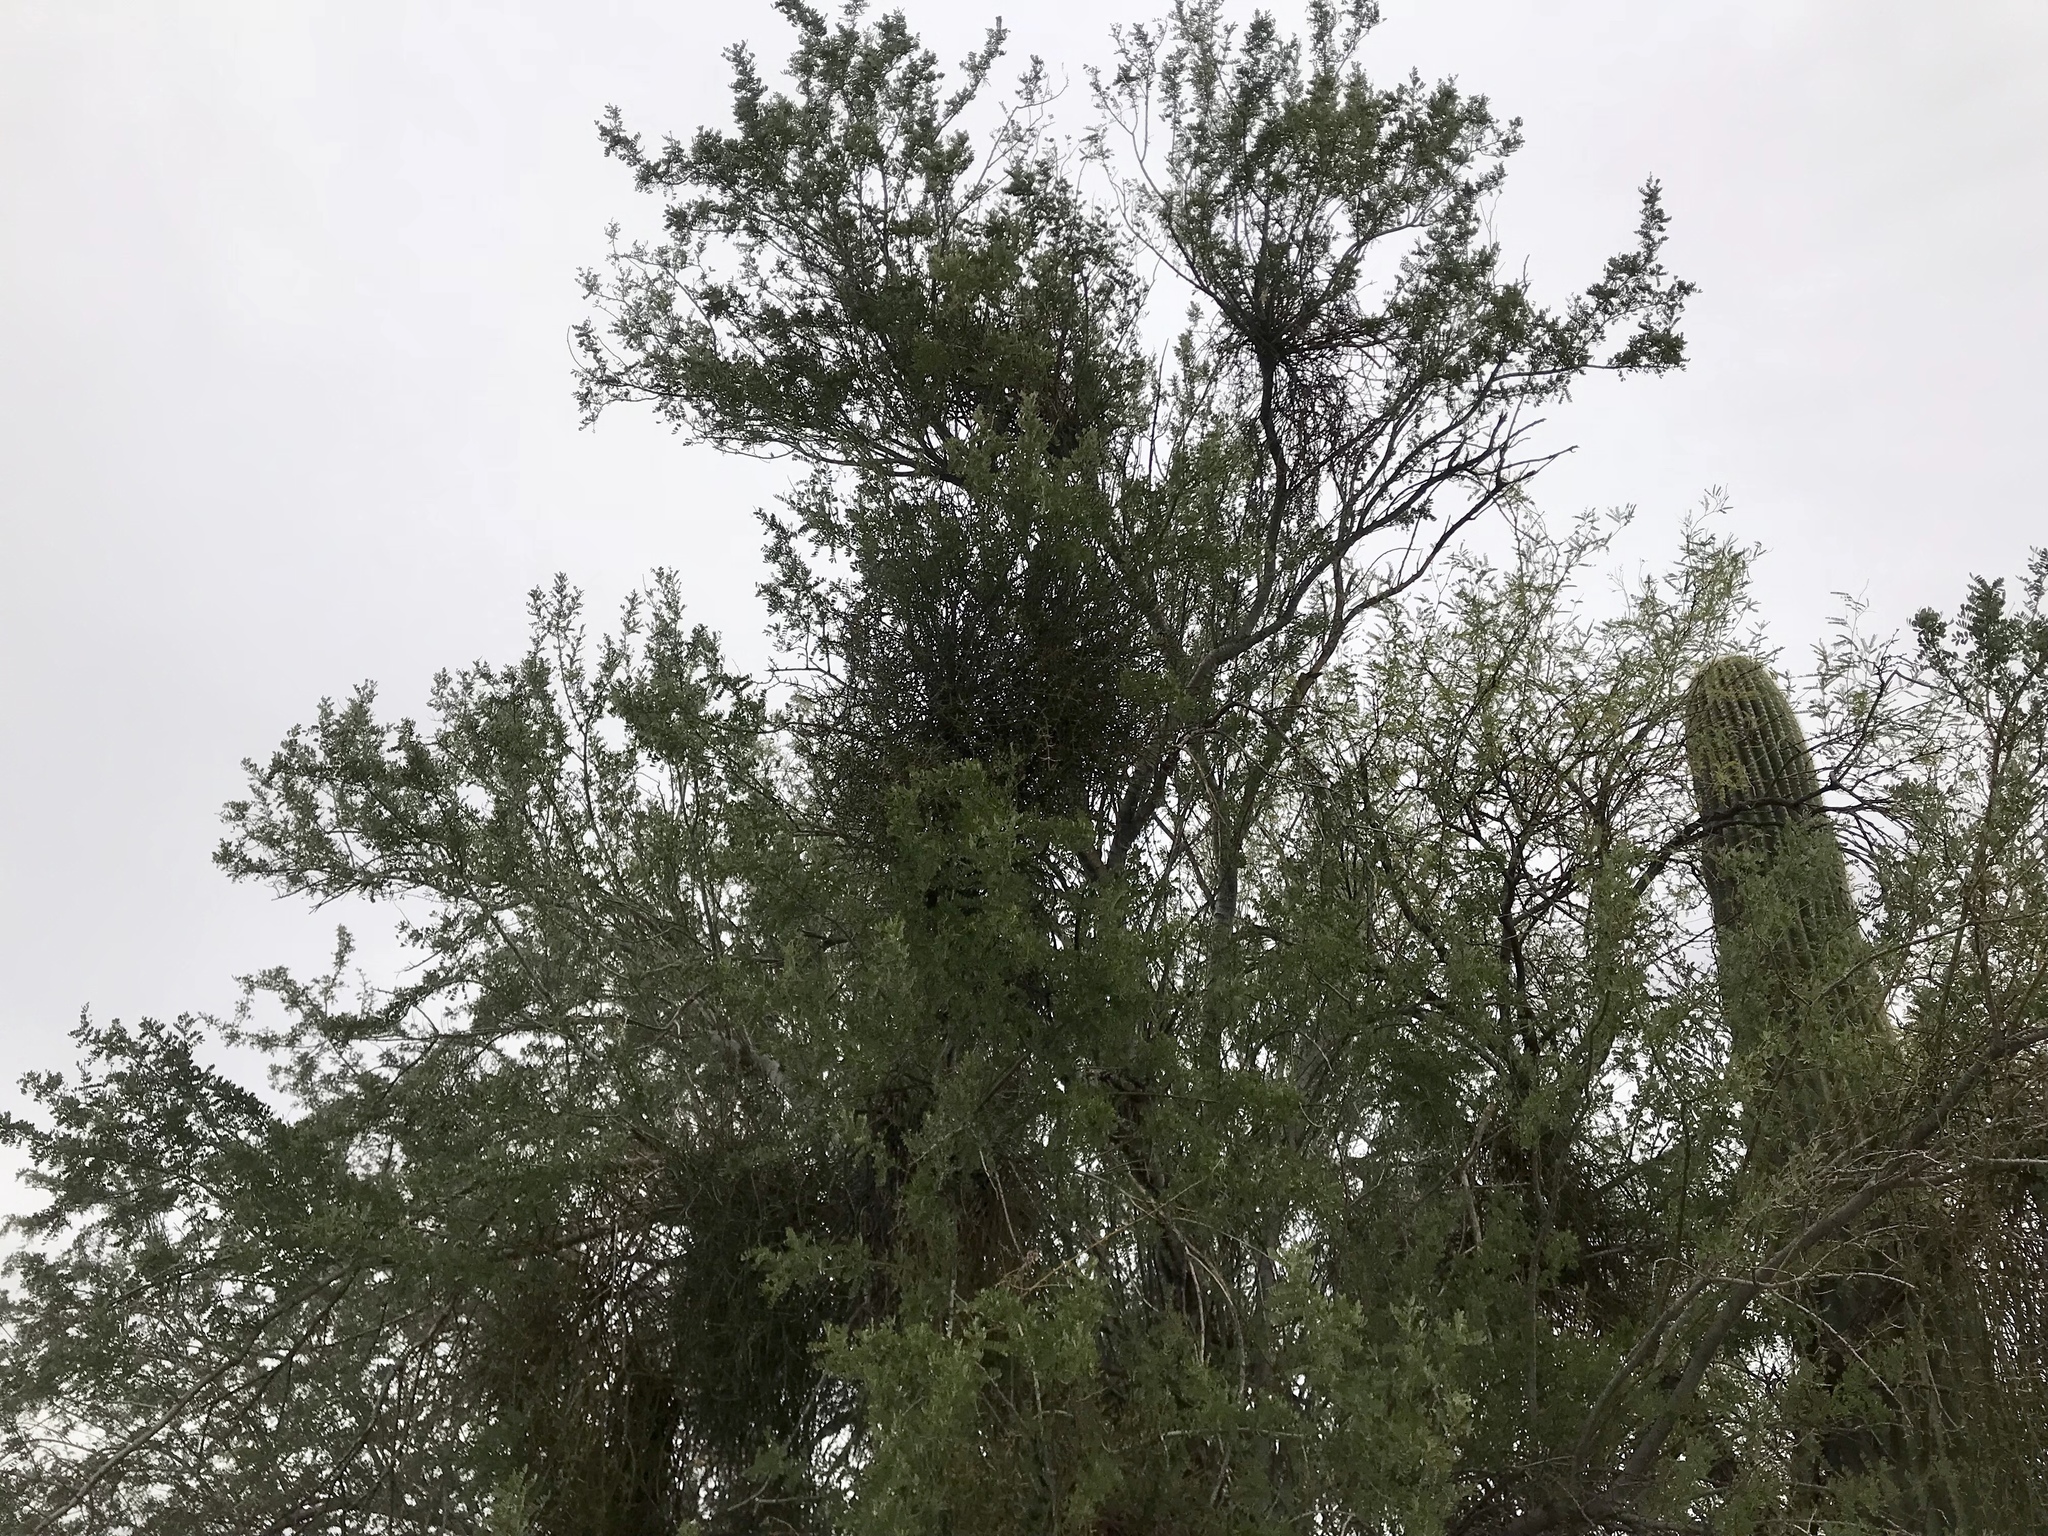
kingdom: Plantae
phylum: Tracheophyta
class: Magnoliopsida
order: Fabales
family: Fabaceae
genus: Olneya
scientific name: Olneya tesota
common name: Desert ironwood
